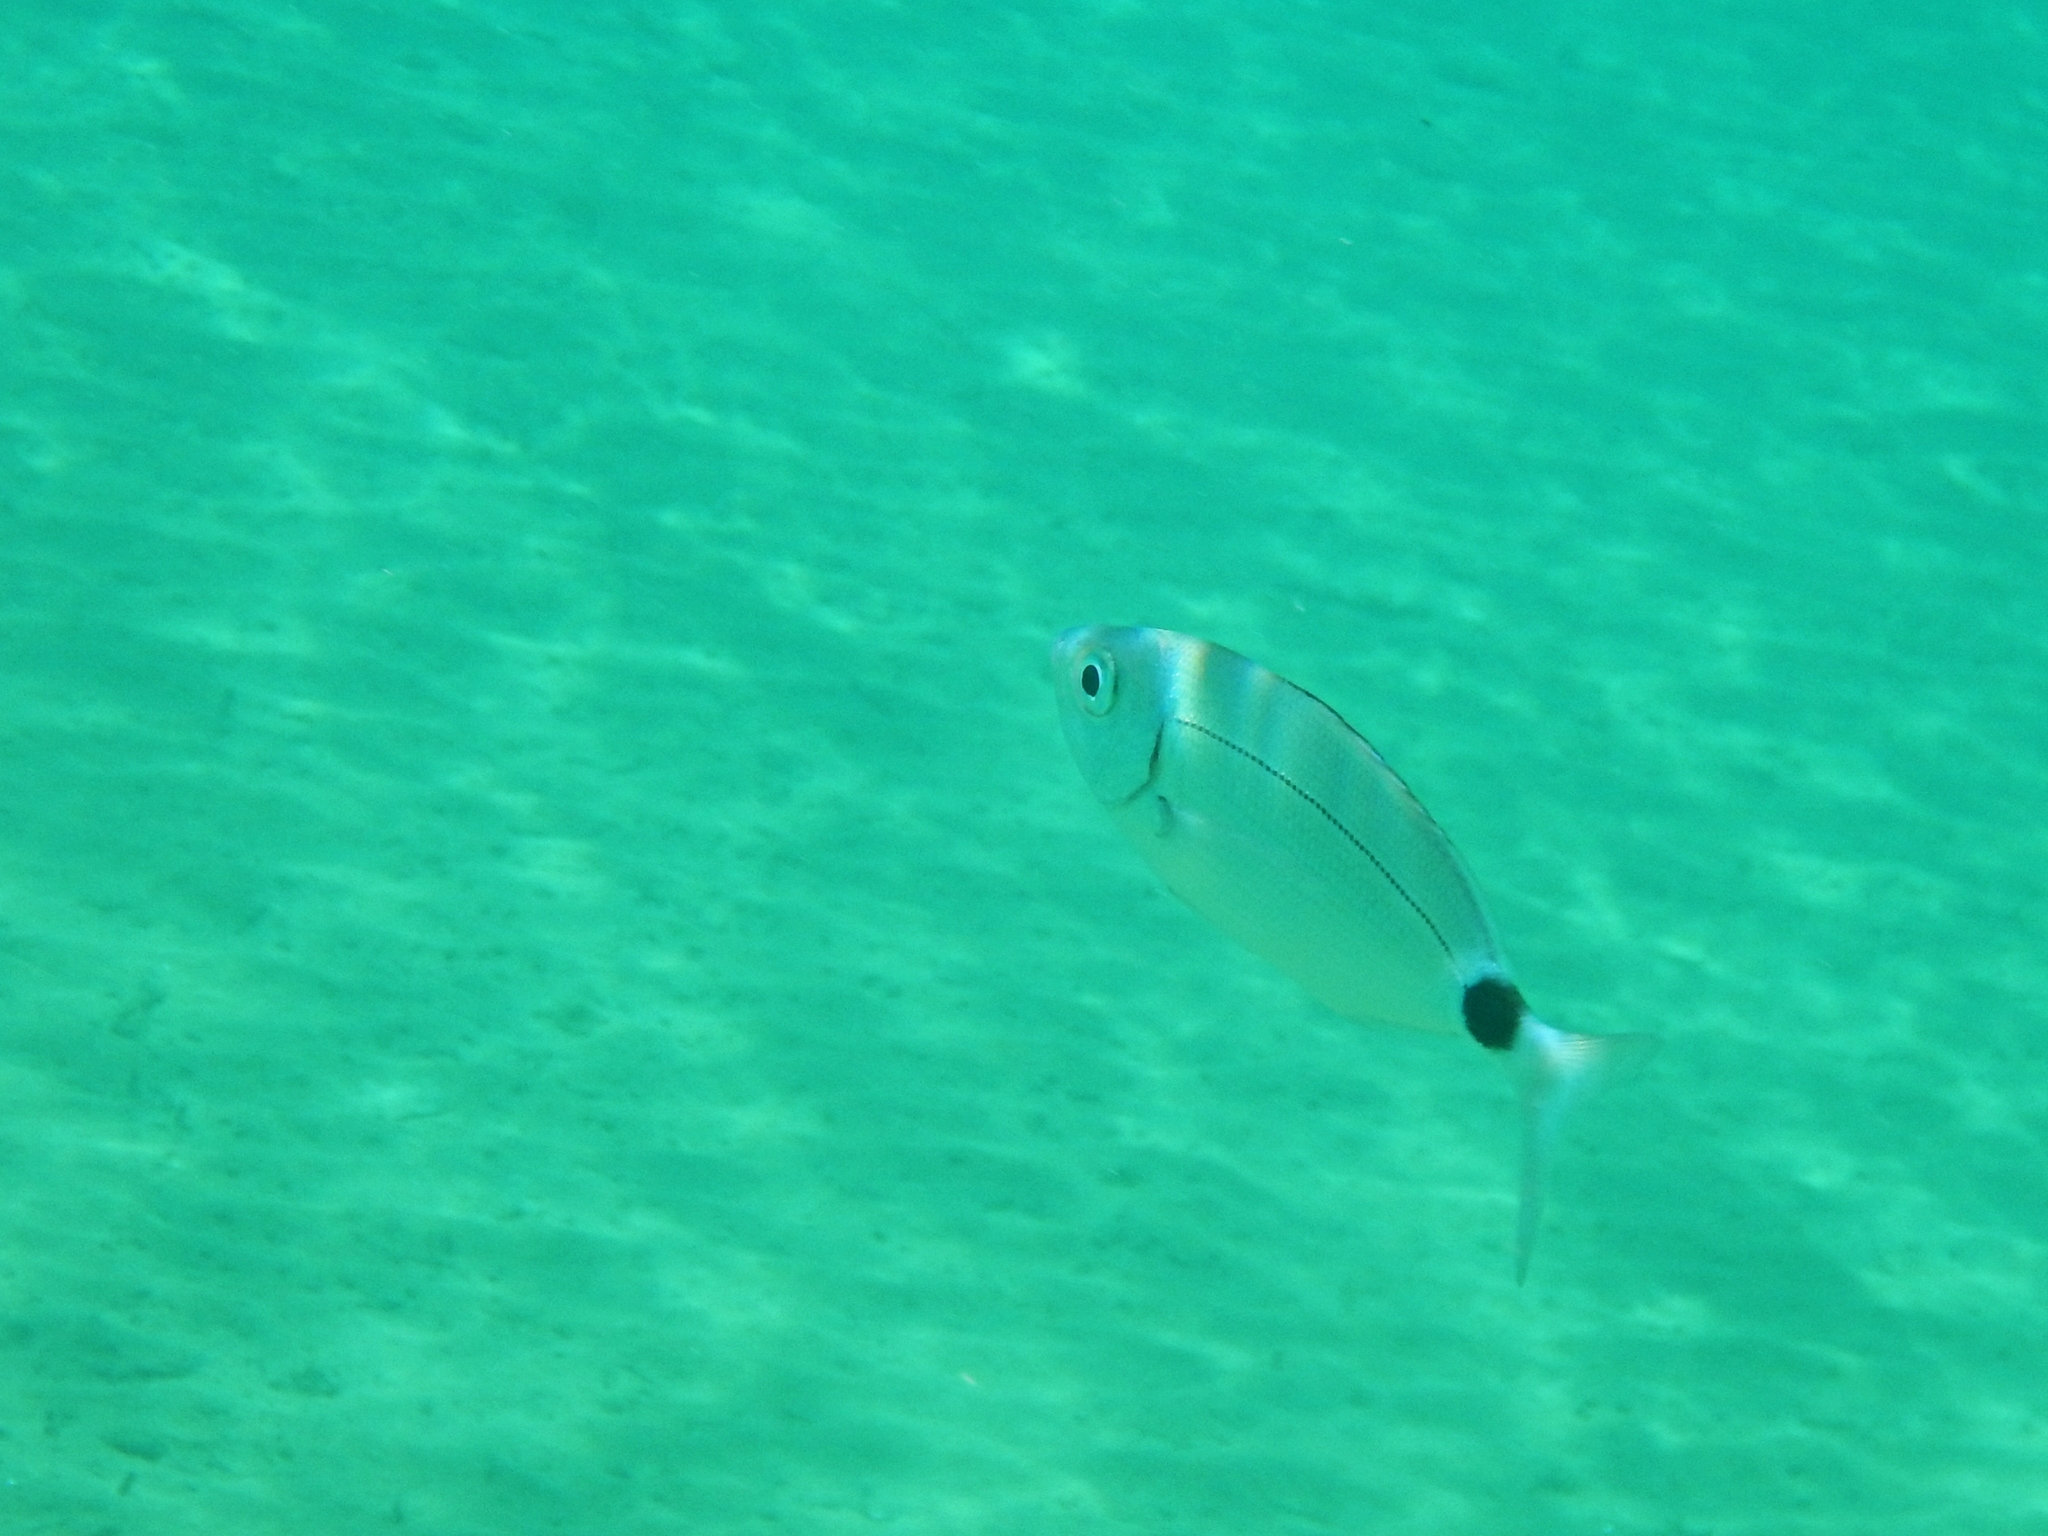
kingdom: Animalia
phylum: Chordata
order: Perciformes
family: Sparidae
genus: Oblada
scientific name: Oblada melanura
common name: Saddled seabream
